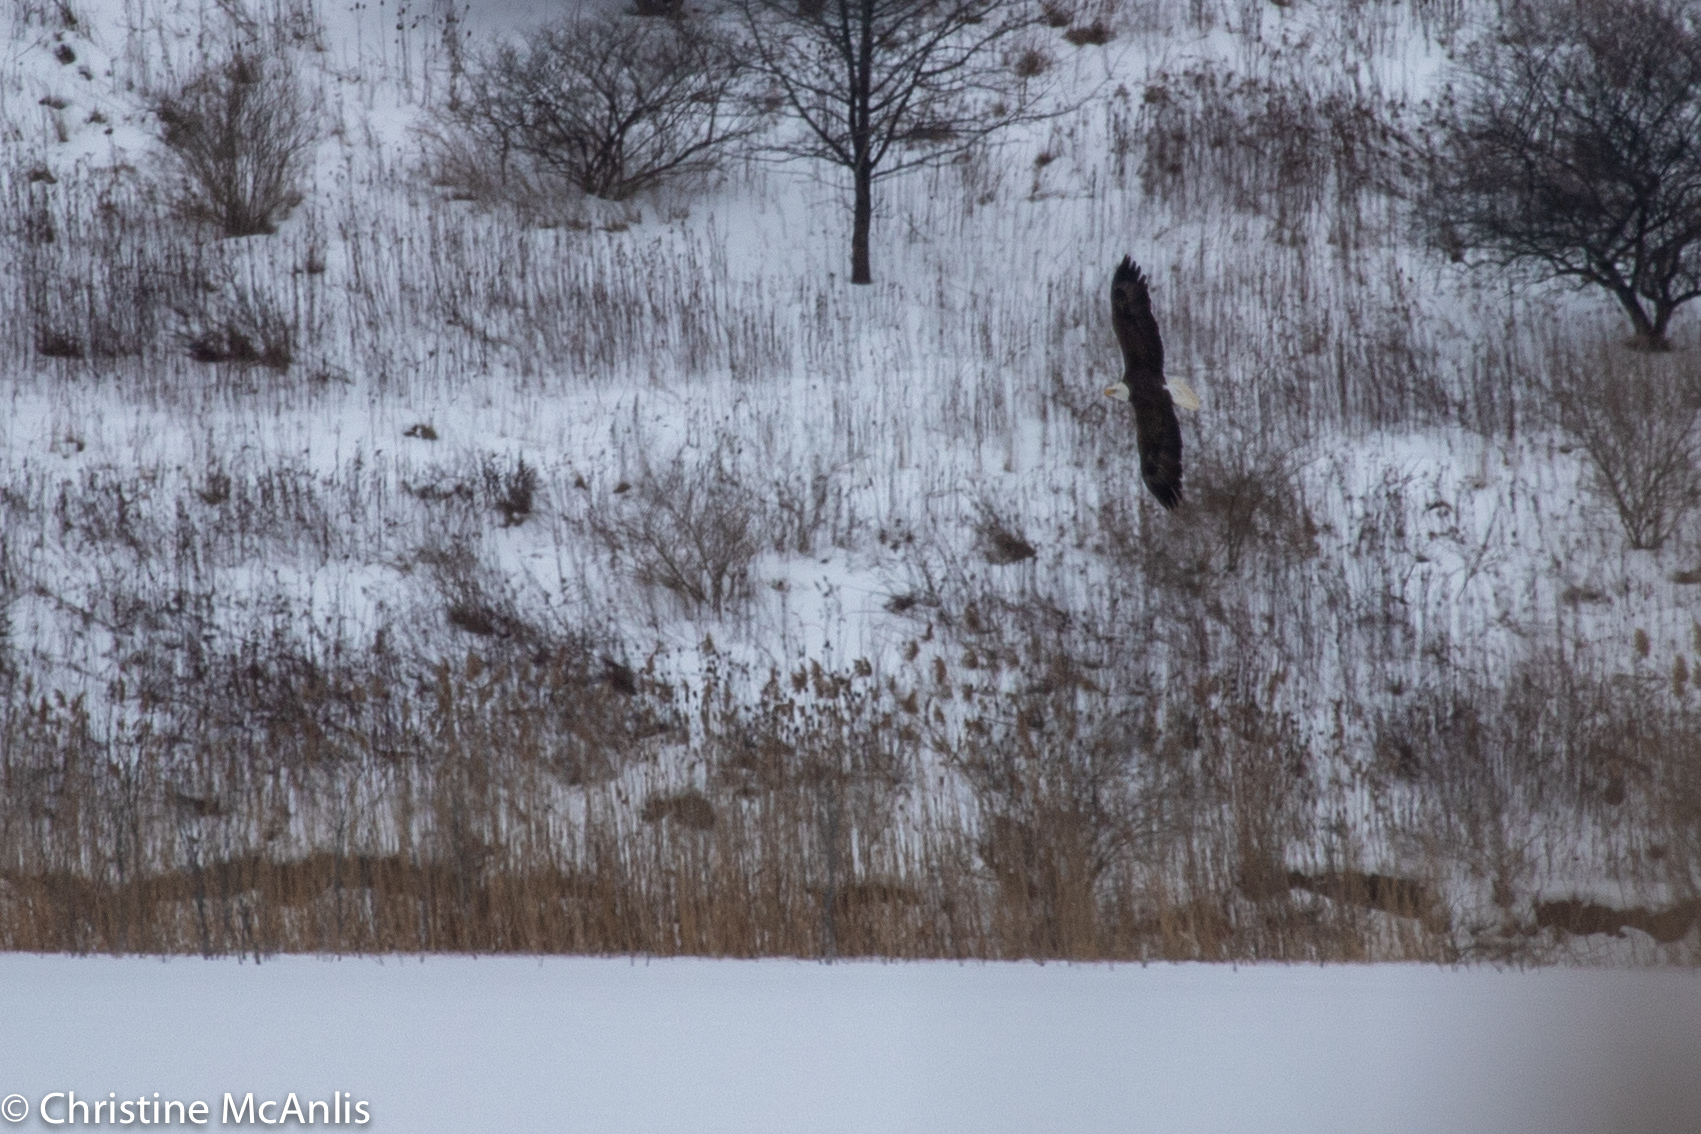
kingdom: Animalia
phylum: Chordata
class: Aves
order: Accipitriformes
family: Accipitridae
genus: Haliaeetus
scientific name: Haliaeetus leucocephalus
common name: Bald eagle
